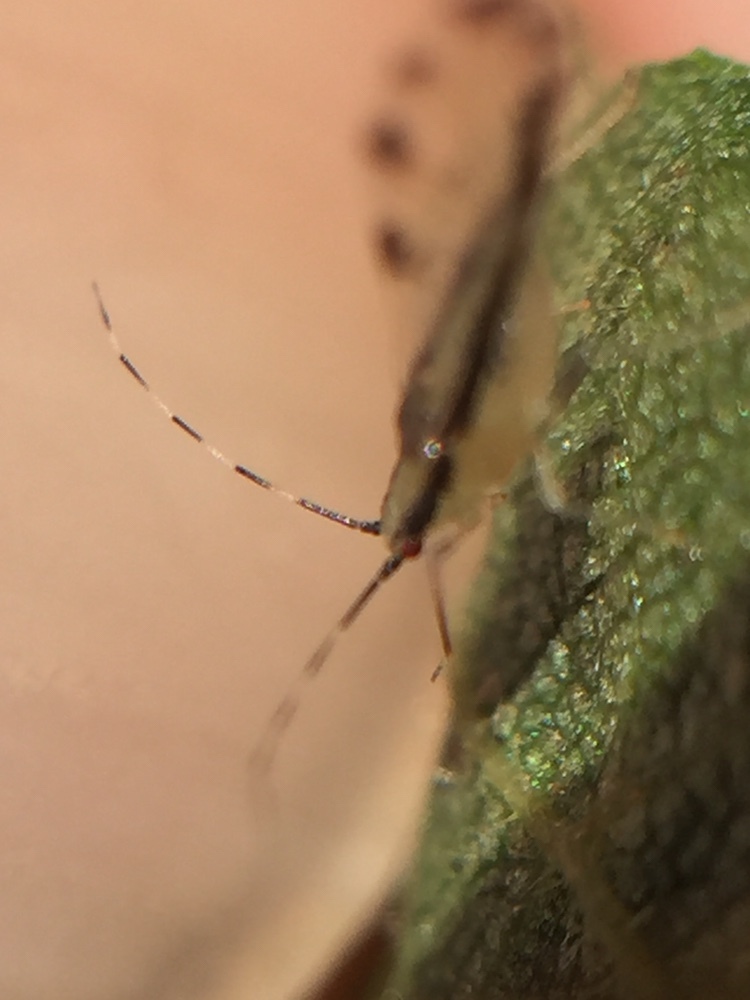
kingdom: Animalia
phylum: Arthropoda
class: Insecta
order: Hemiptera
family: Aphididae
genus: Eucallipterus
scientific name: Eucallipterus tiliae
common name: Aphid
